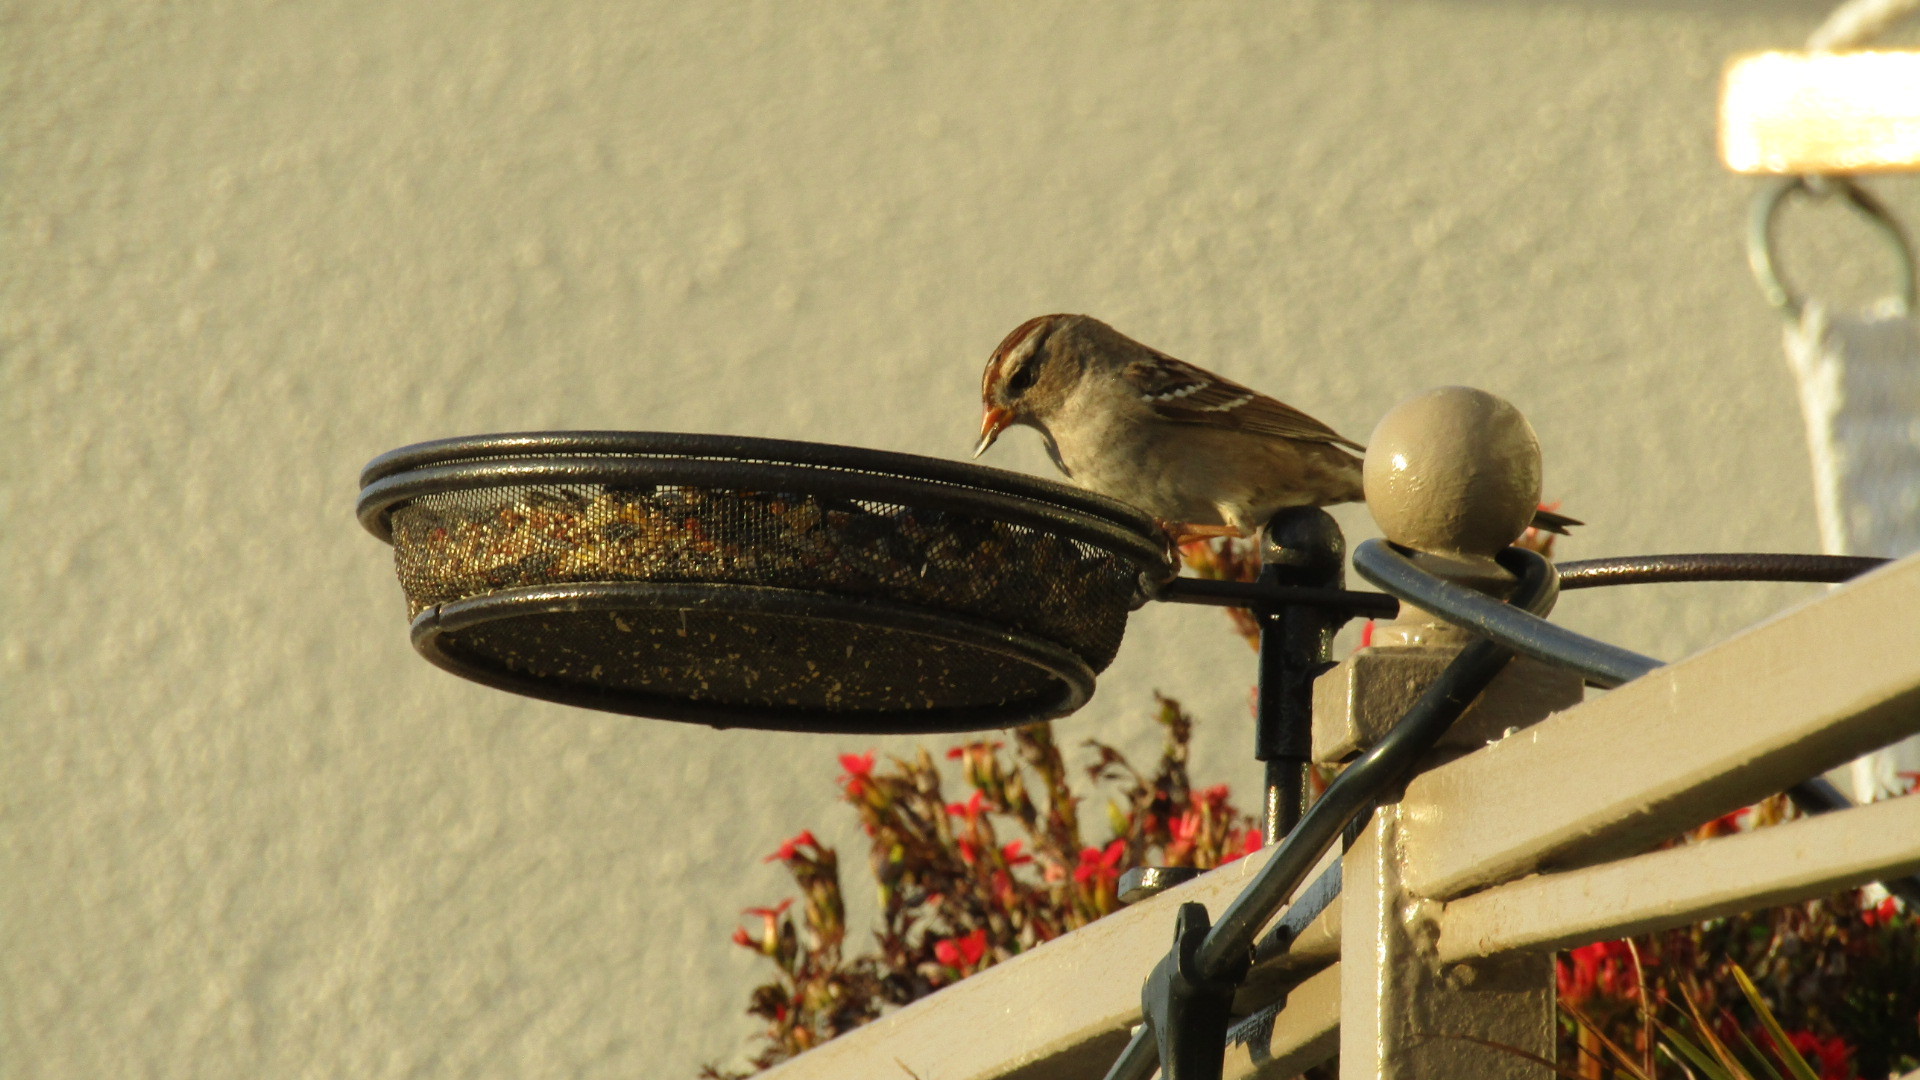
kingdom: Animalia
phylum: Chordata
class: Aves
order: Passeriformes
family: Passerellidae
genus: Zonotrichia
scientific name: Zonotrichia leucophrys
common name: White-crowned sparrow
